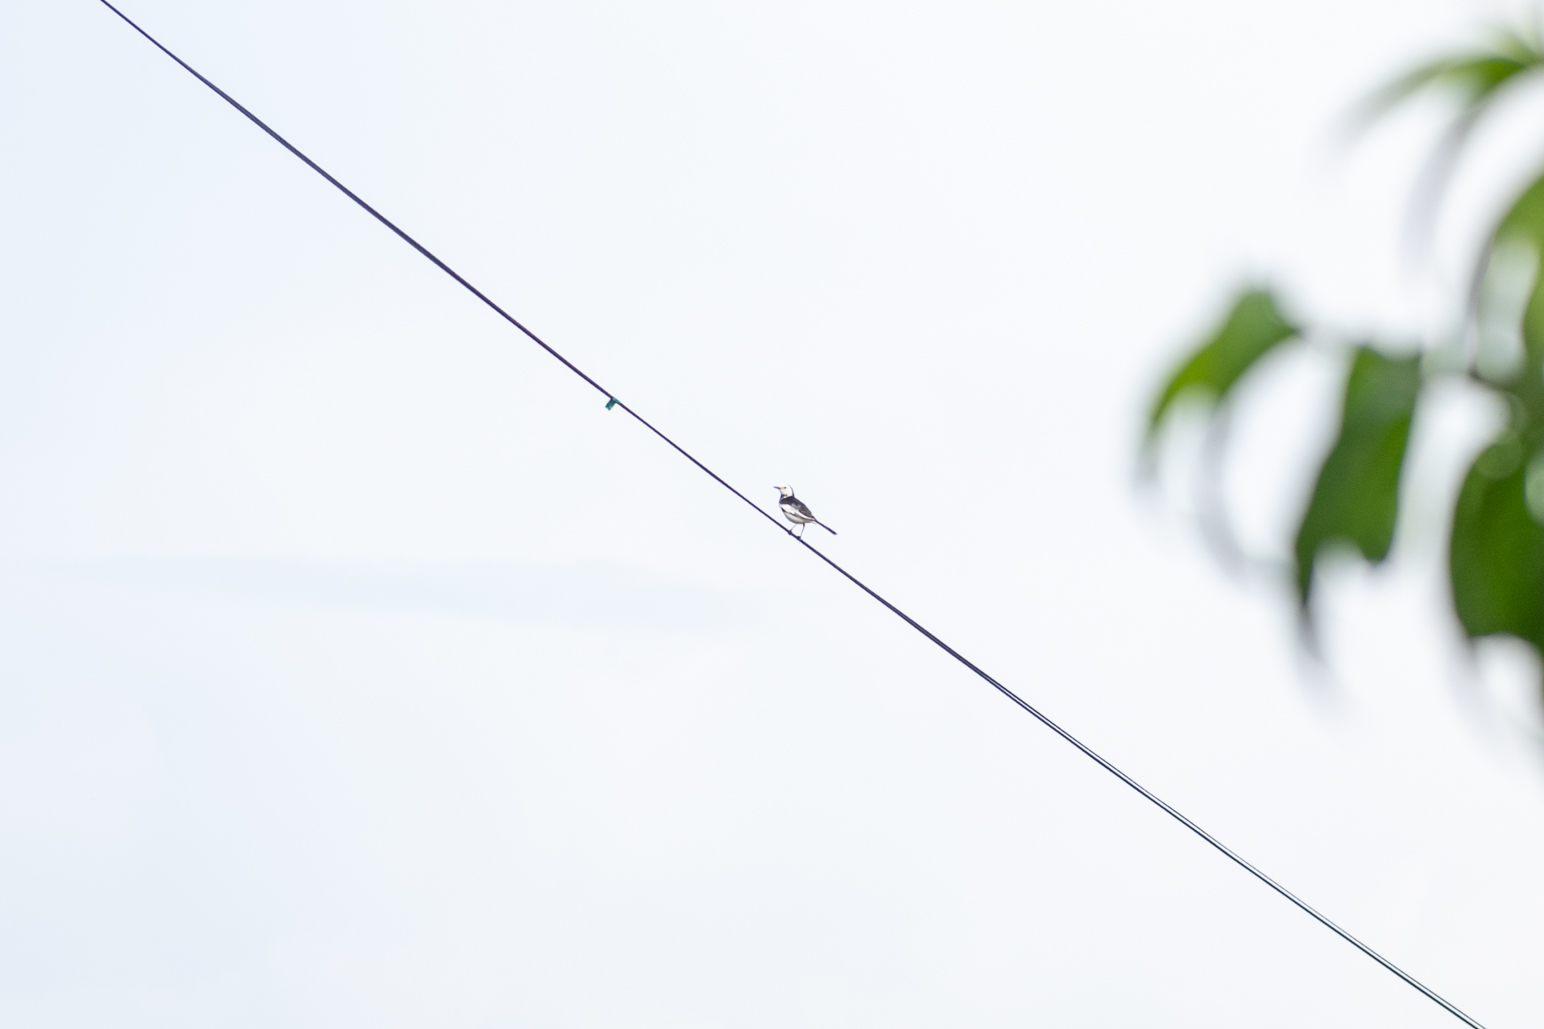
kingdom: Animalia
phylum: Chordata
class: Aves
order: Passeriformes
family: Motacillidae
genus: Motacilla
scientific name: Motacilla alba
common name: White wagtail
